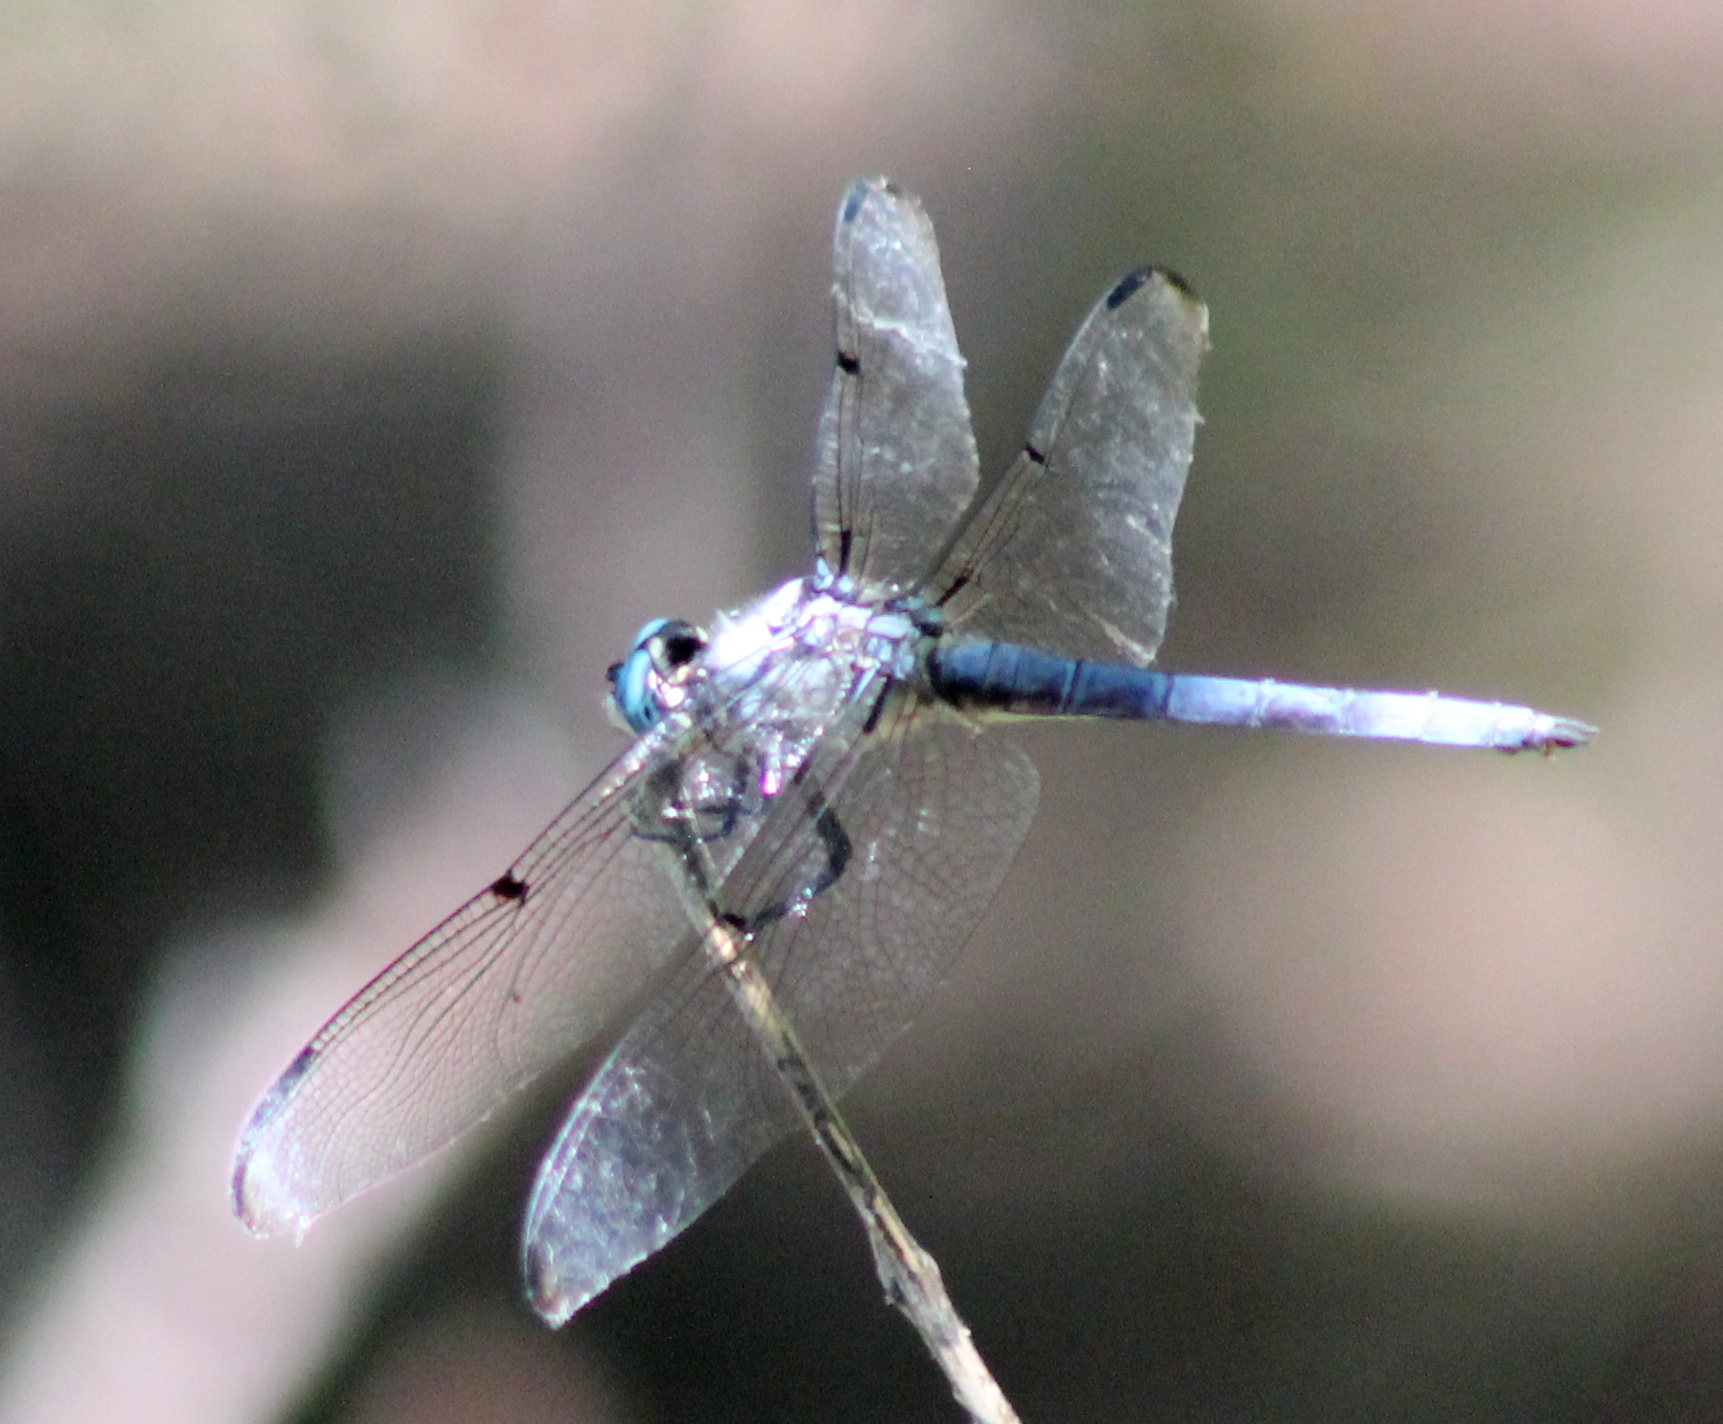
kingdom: Animalia
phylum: Arthropoda
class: Insecta
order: Odonata
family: Libellulidae
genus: Libellula
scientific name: Libellula vibrans
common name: Great blue skimmer
